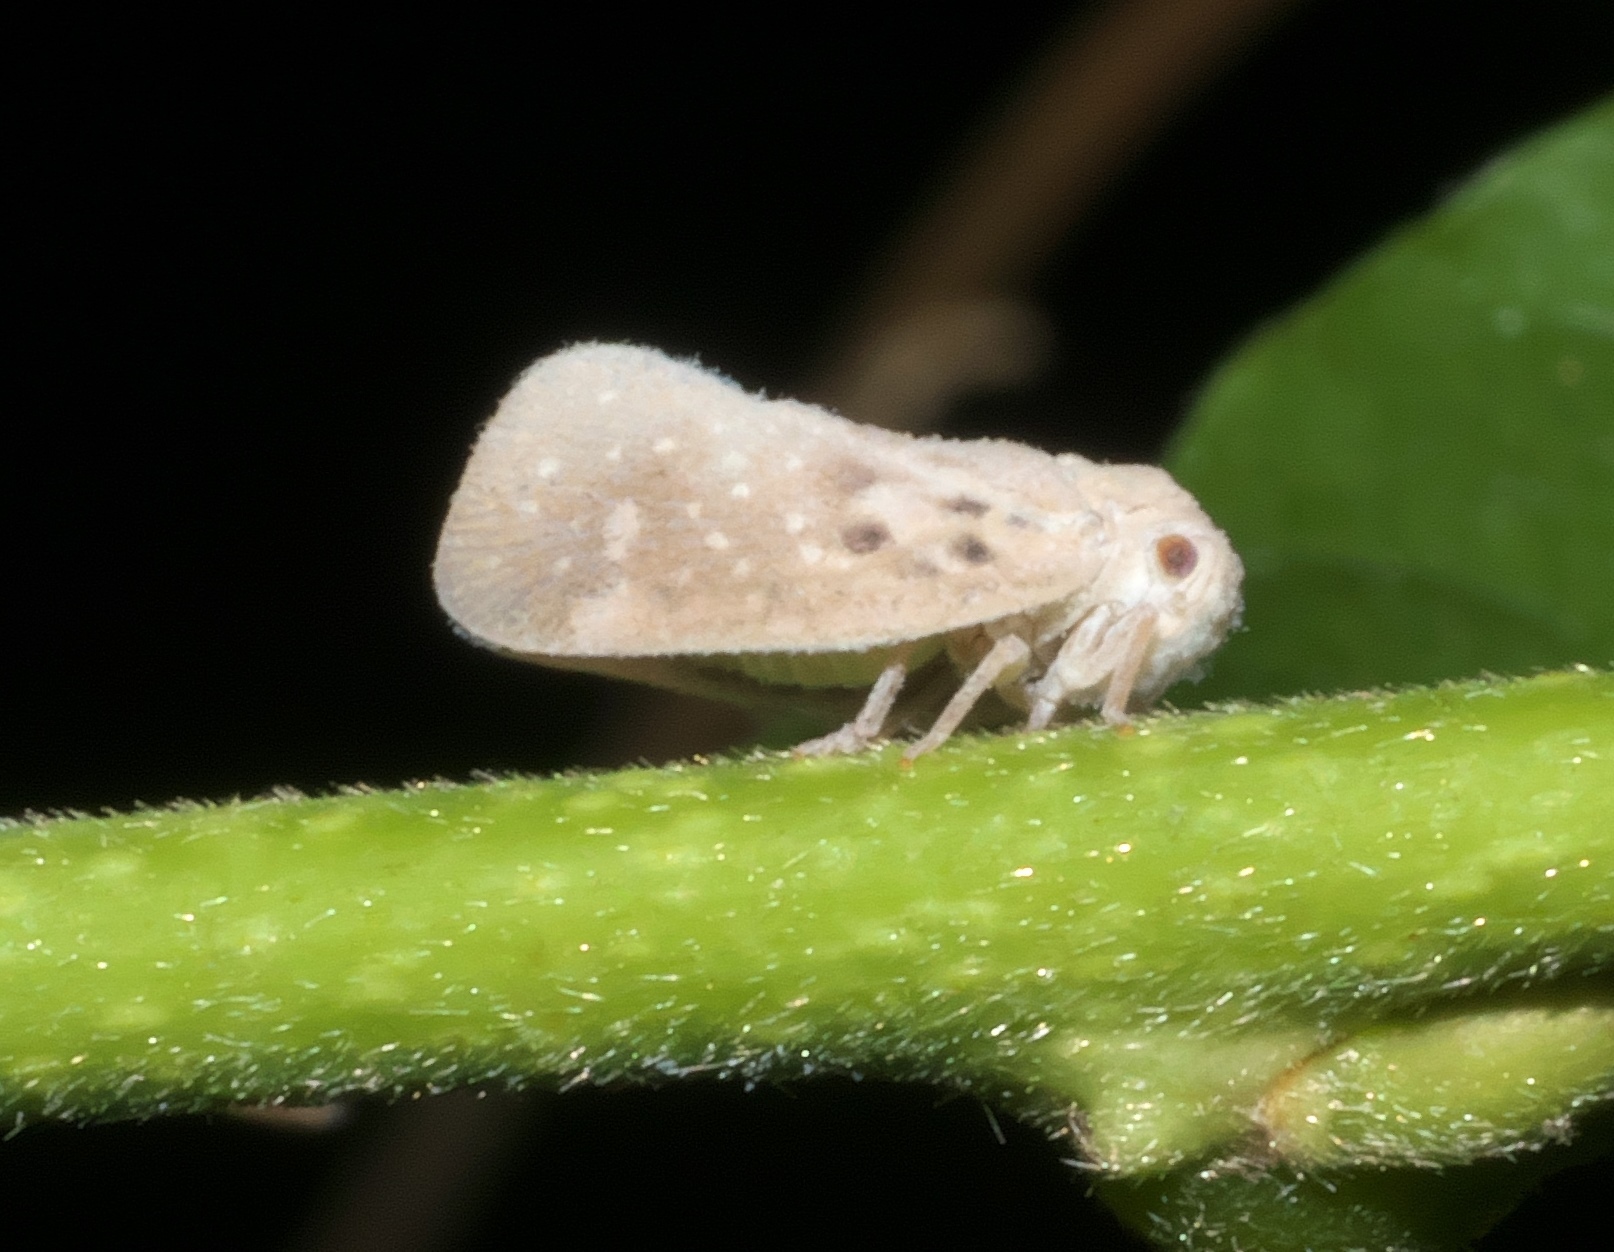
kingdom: Animalia
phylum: Arthropoda
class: Insecta
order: Hemiptera
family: Flatidae
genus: Metcalfa
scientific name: Metcalfa pruinosa
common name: Citrus flatid planthopper
